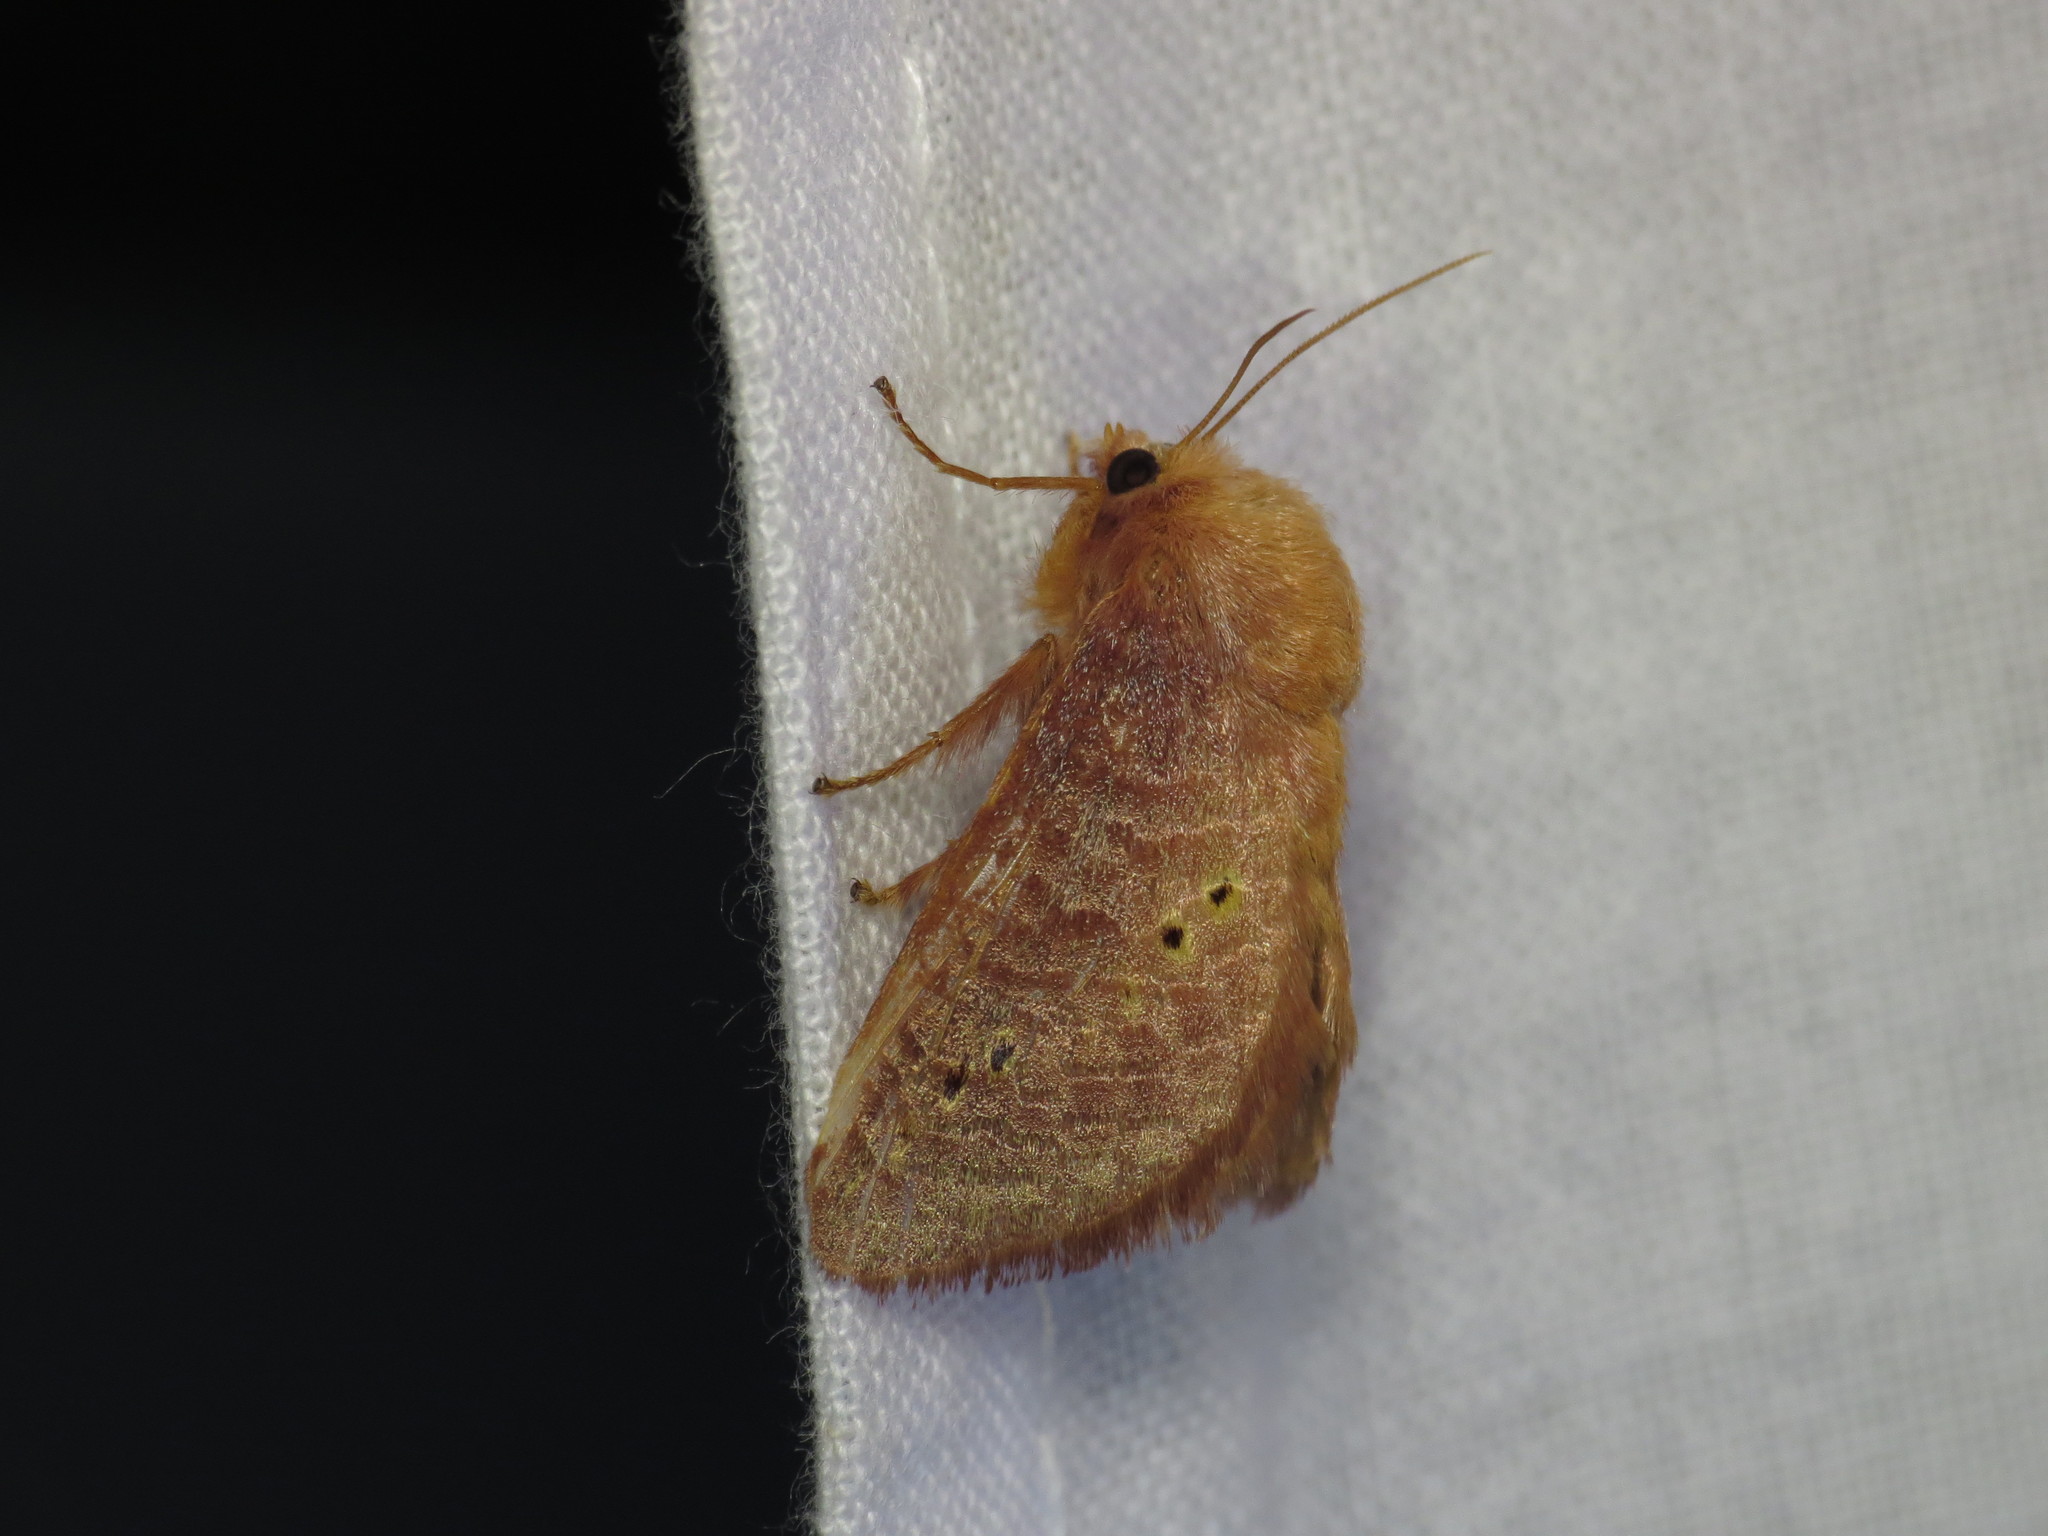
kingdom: Animalia
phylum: Arthropoda
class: Insecta
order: Lepidoptera
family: Limacodidae
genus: Doratifera
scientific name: Doratifera quadriguttata
